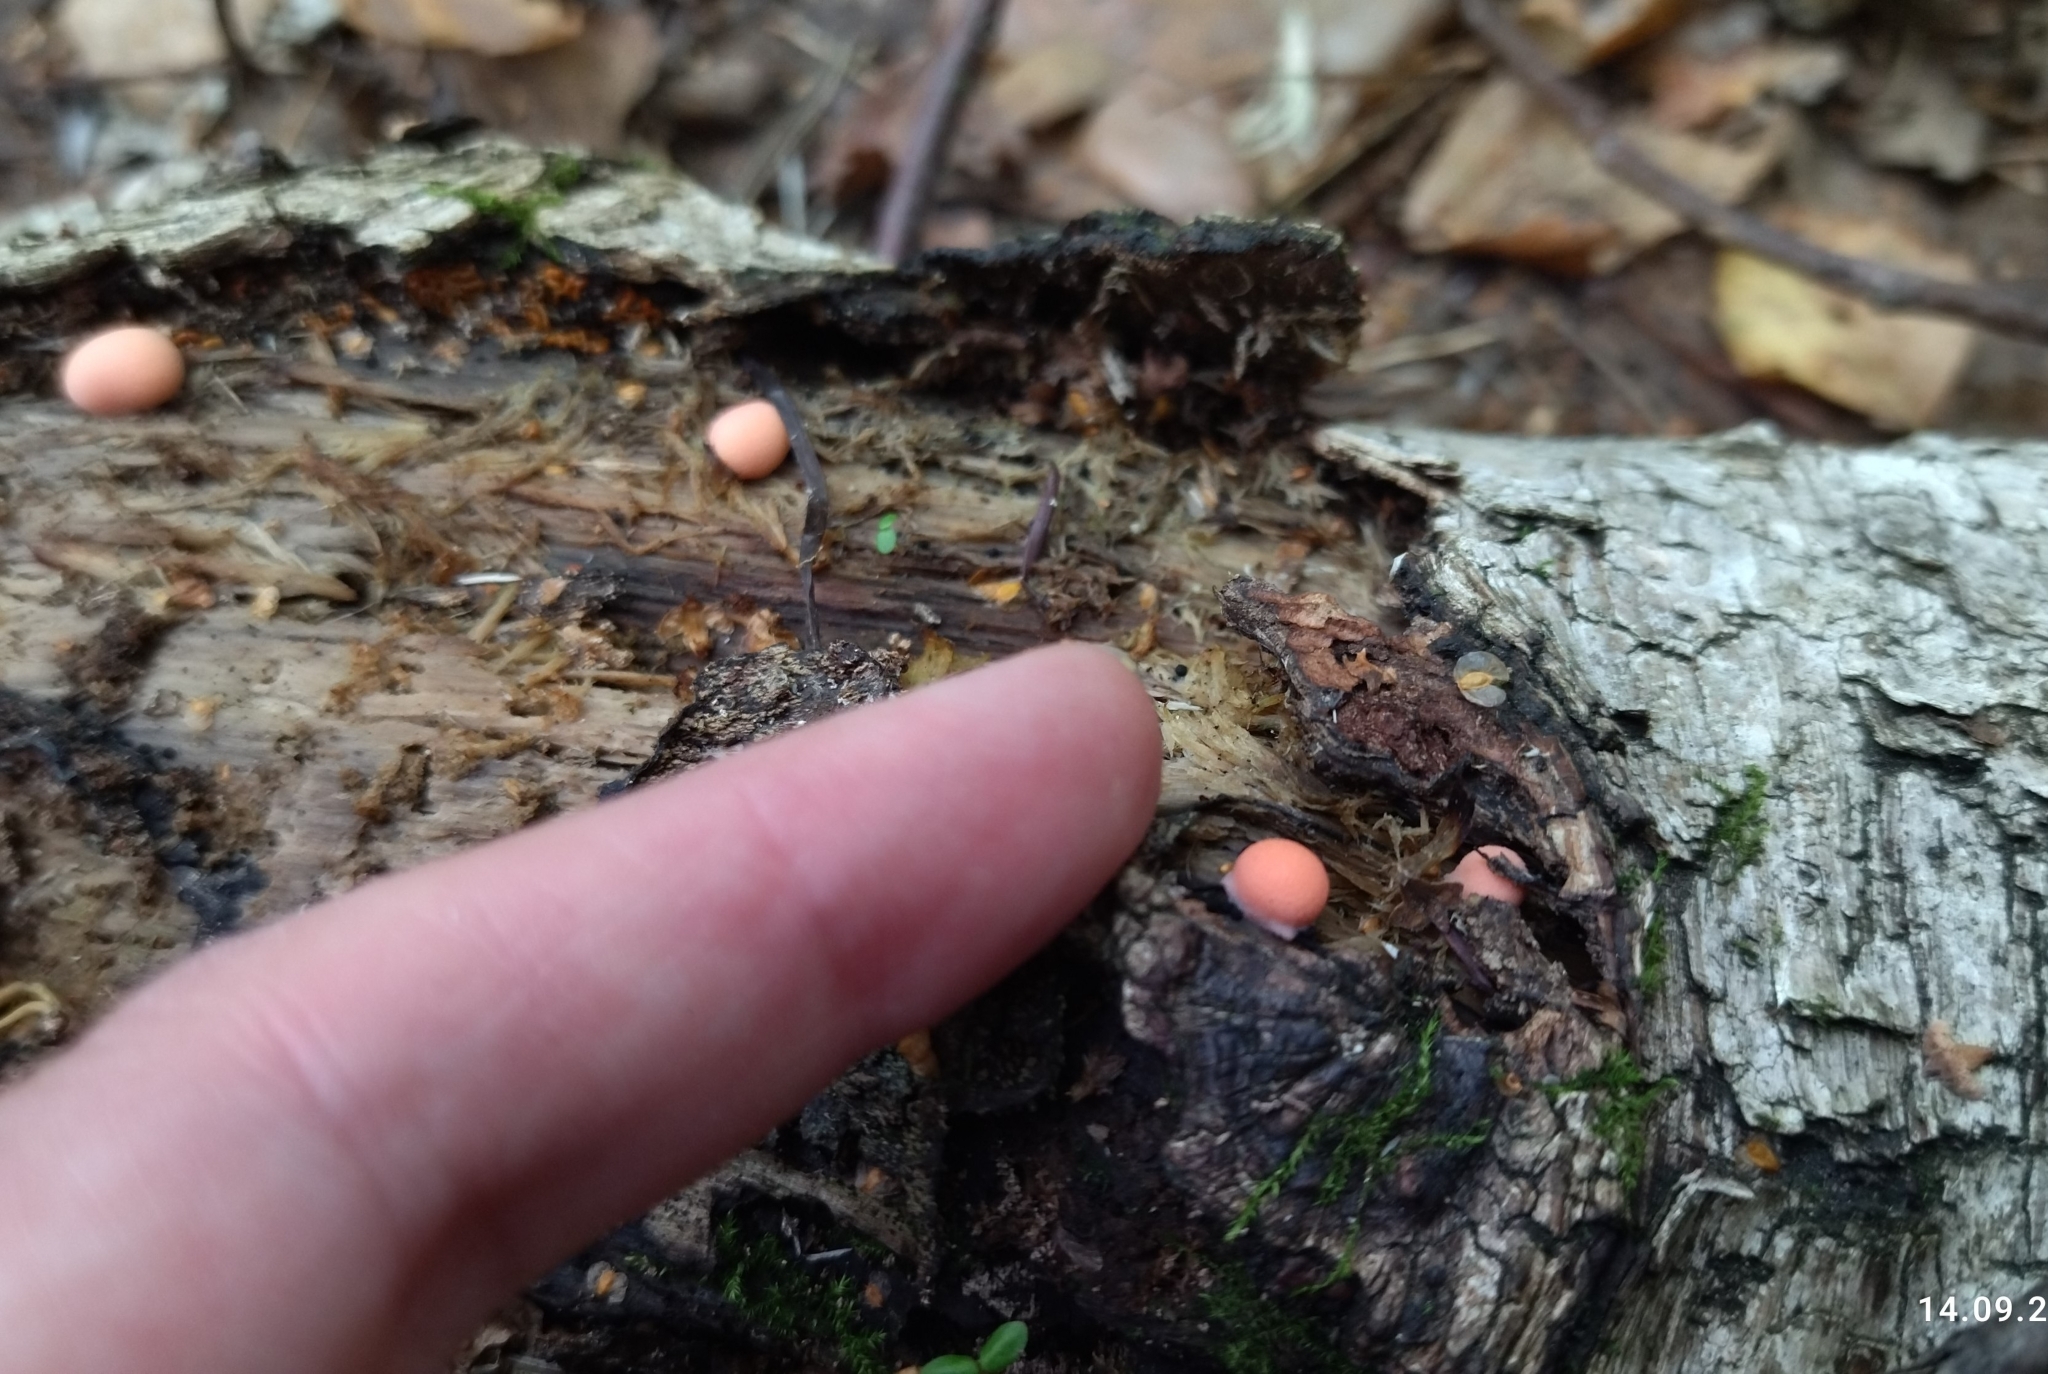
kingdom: Protozoa
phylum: Mycetozoa
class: Myxomycetes
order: Cribrariales
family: Tubiferaceae
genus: Lycogala
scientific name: Lycogala epidendrum
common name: Wolf's milk
